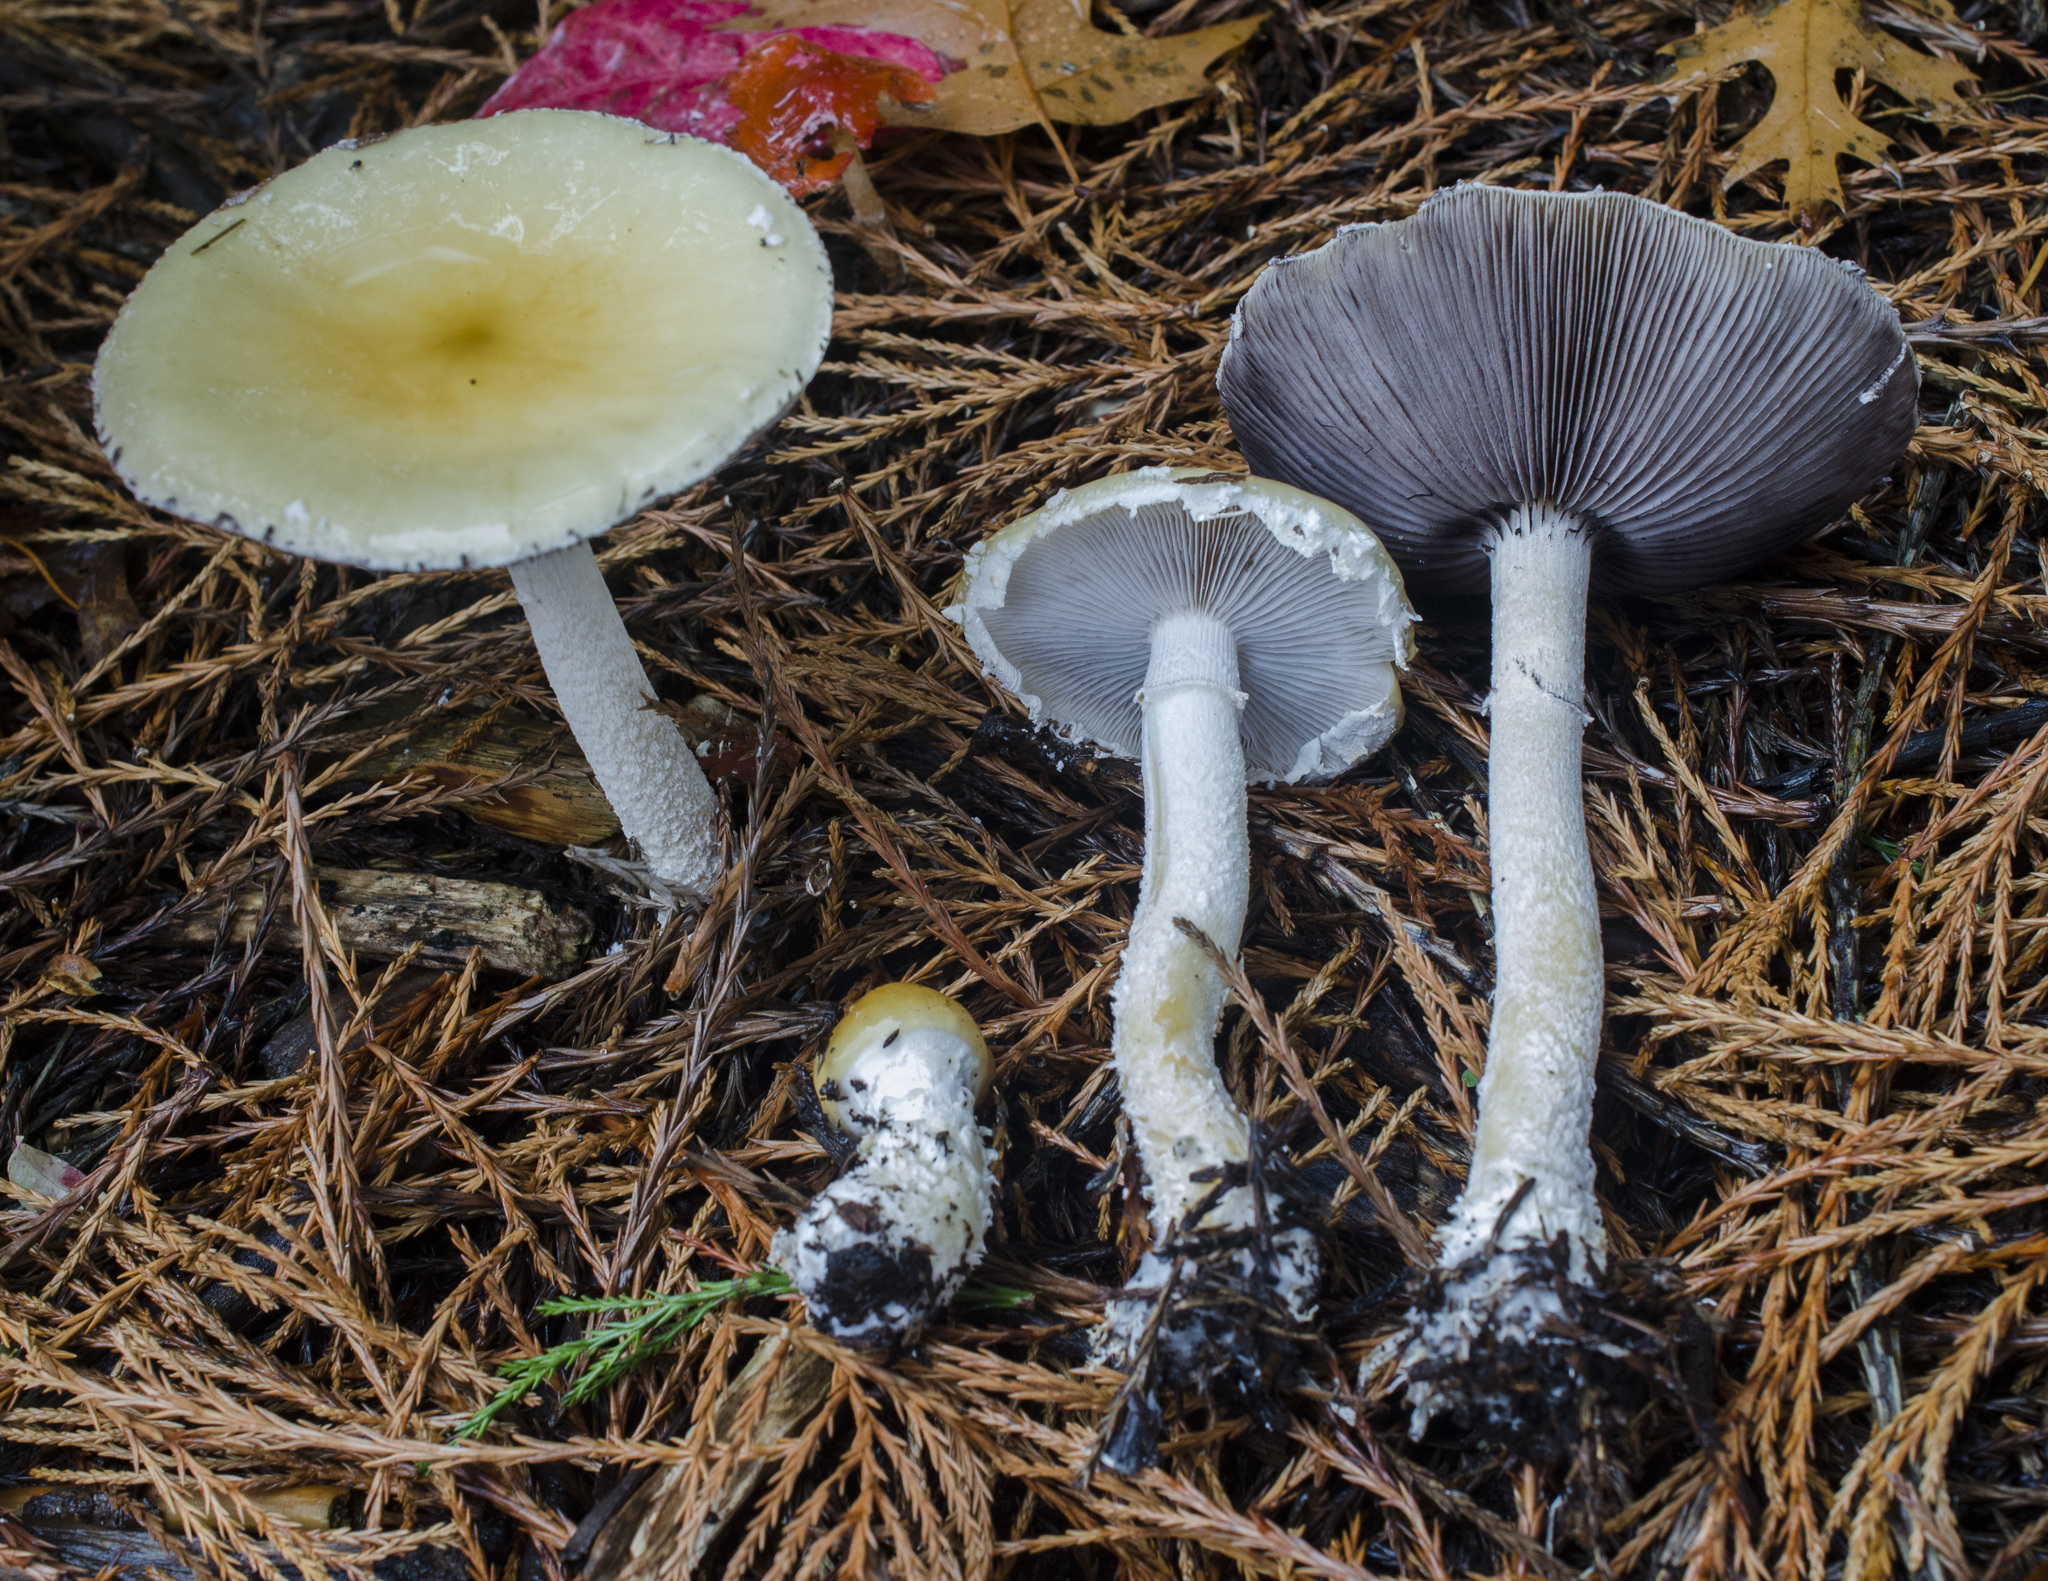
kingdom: Fungi
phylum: Basidiomycota
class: Agaricomycetes
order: Agaricales
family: Strophariaceae
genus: Stropharia
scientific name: Stropharia ambigua
